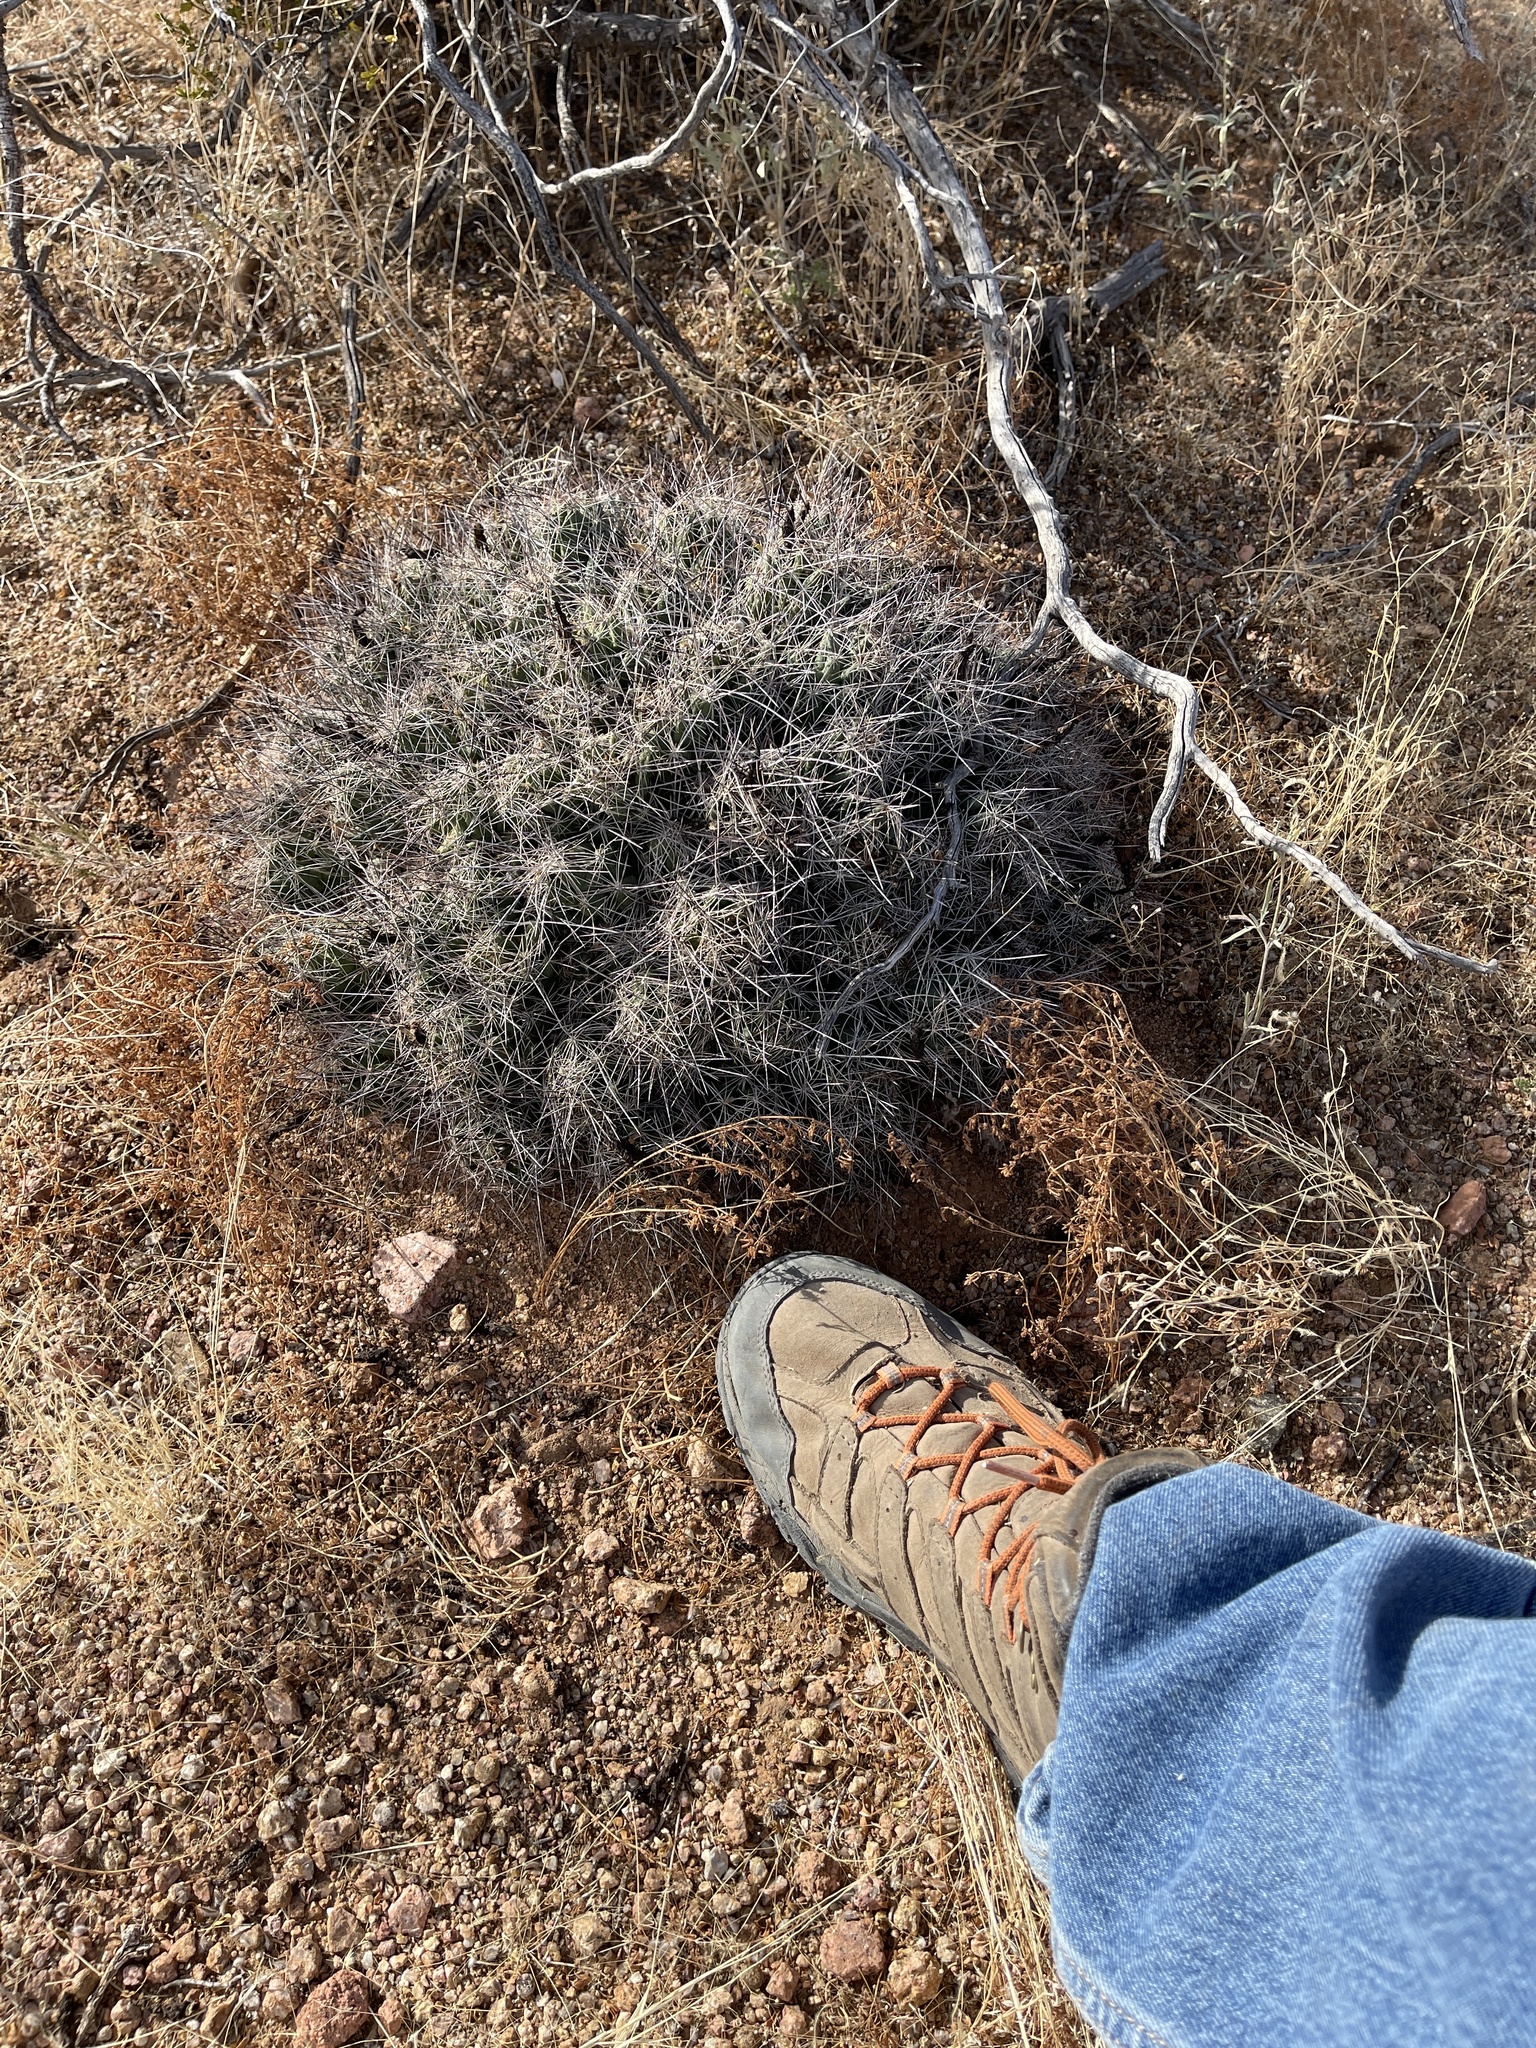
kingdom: Plantae
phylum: Tracheophyta
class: Magnoliopsida
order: Caryophyllales
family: Cactaceae
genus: Coryphantha
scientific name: Coryphantha macromeris
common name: Nipple beehive cactus
